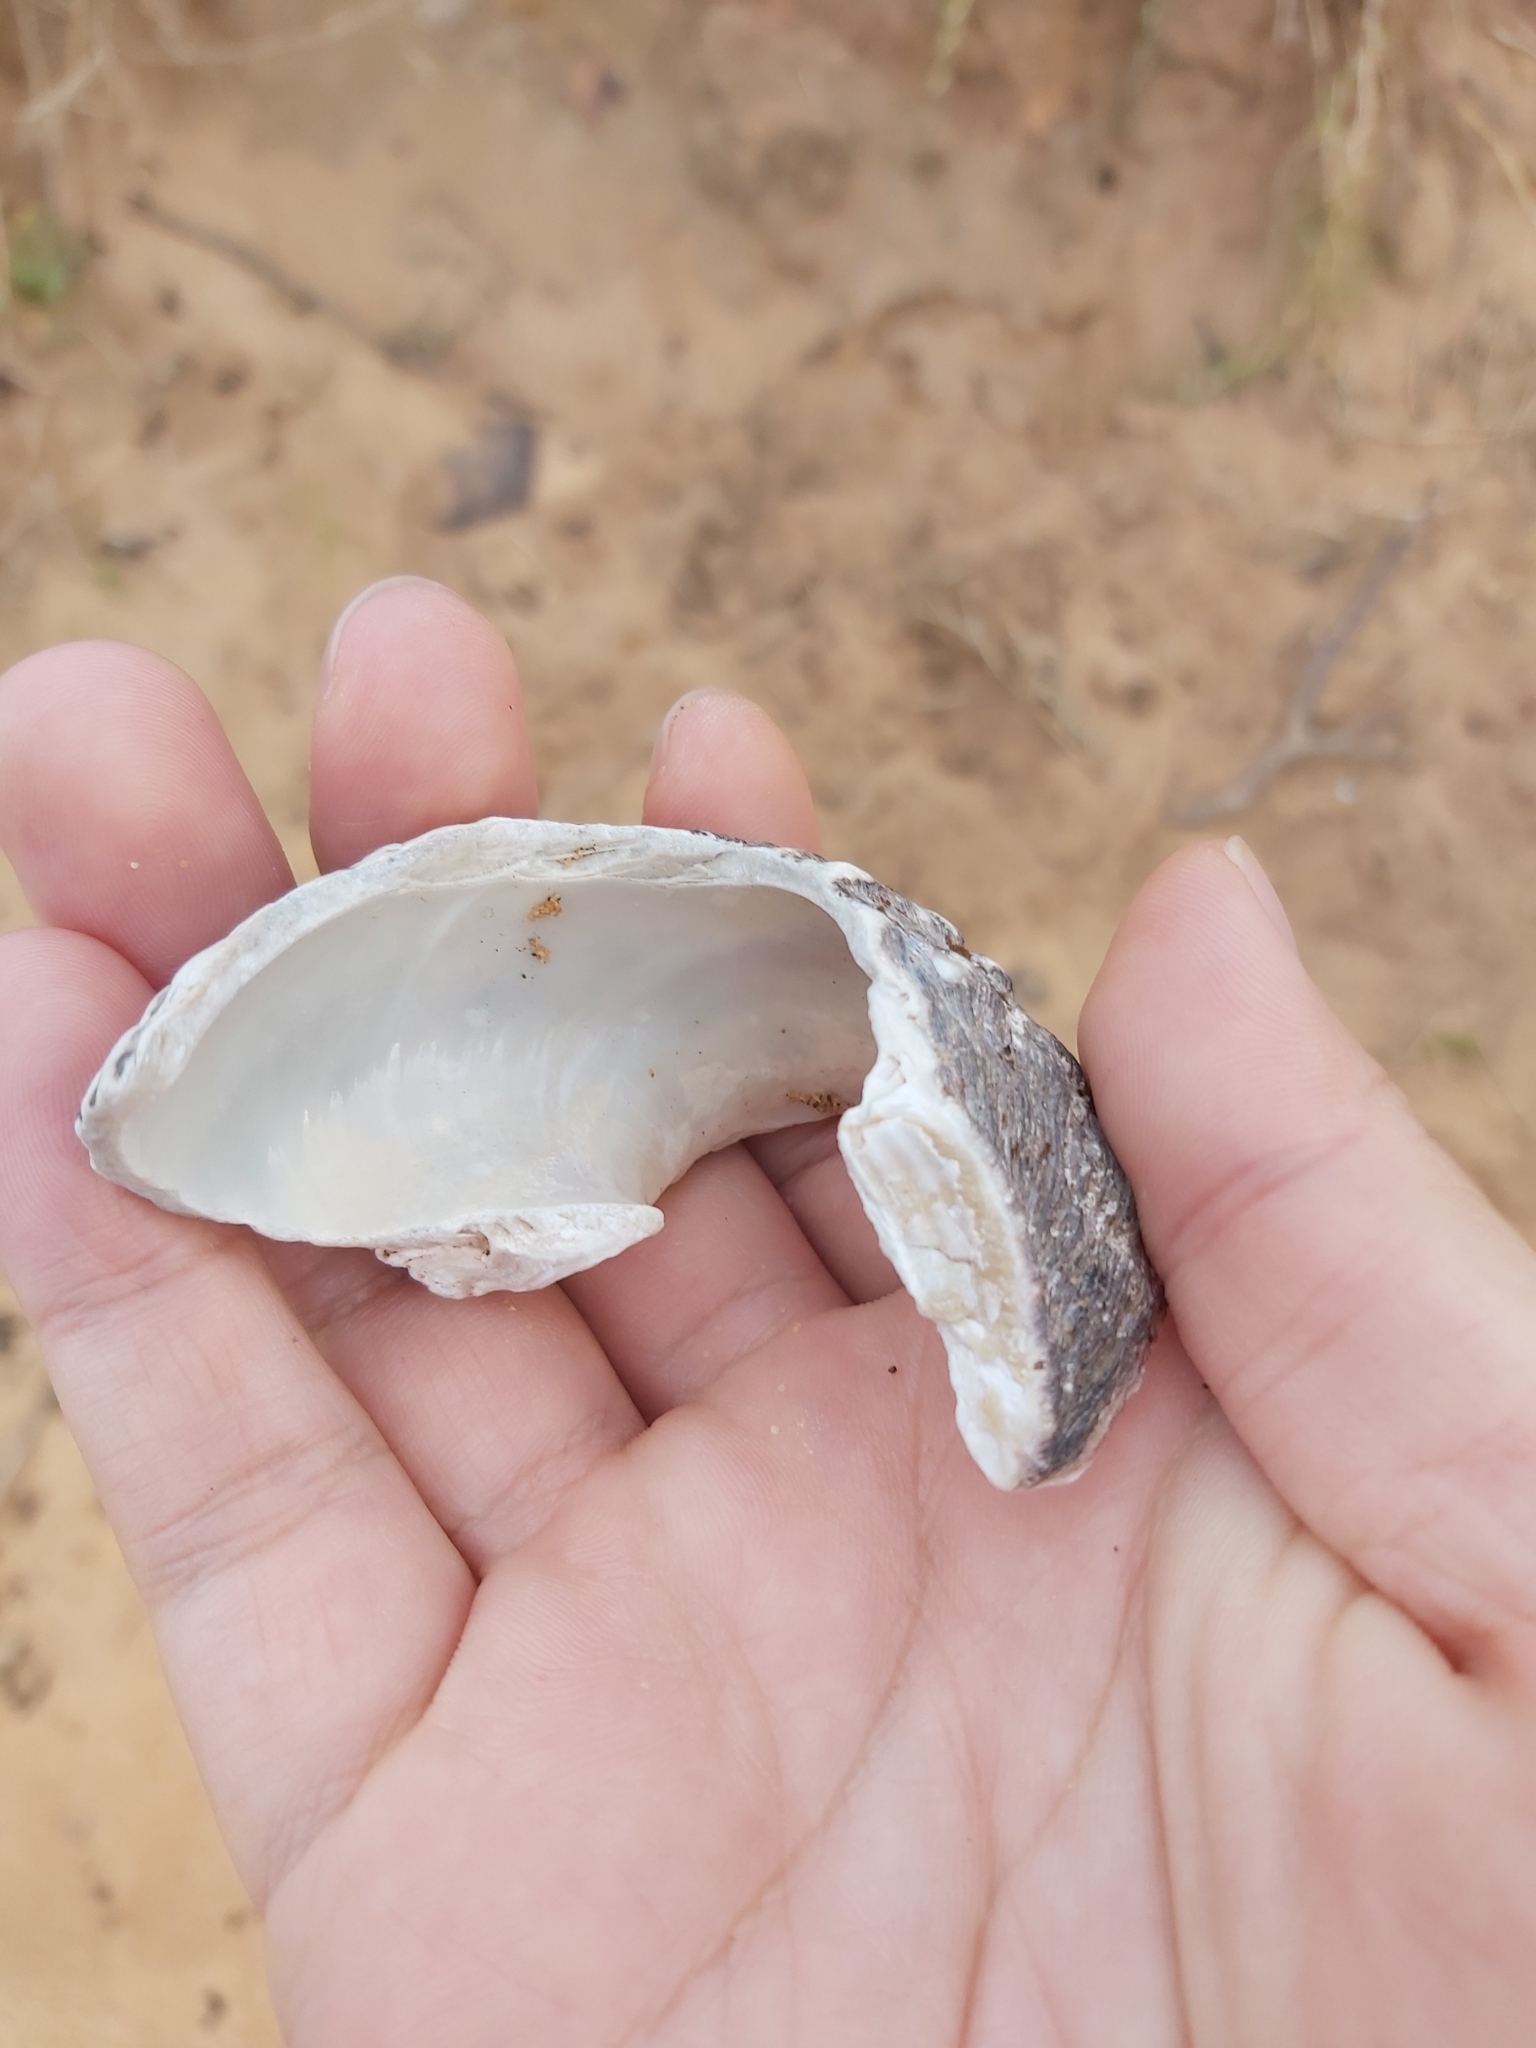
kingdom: Animalia
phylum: Mollusca
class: Gastropoda
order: Trochida
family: Turbinidae
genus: Lunella
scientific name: Lunella torquata
